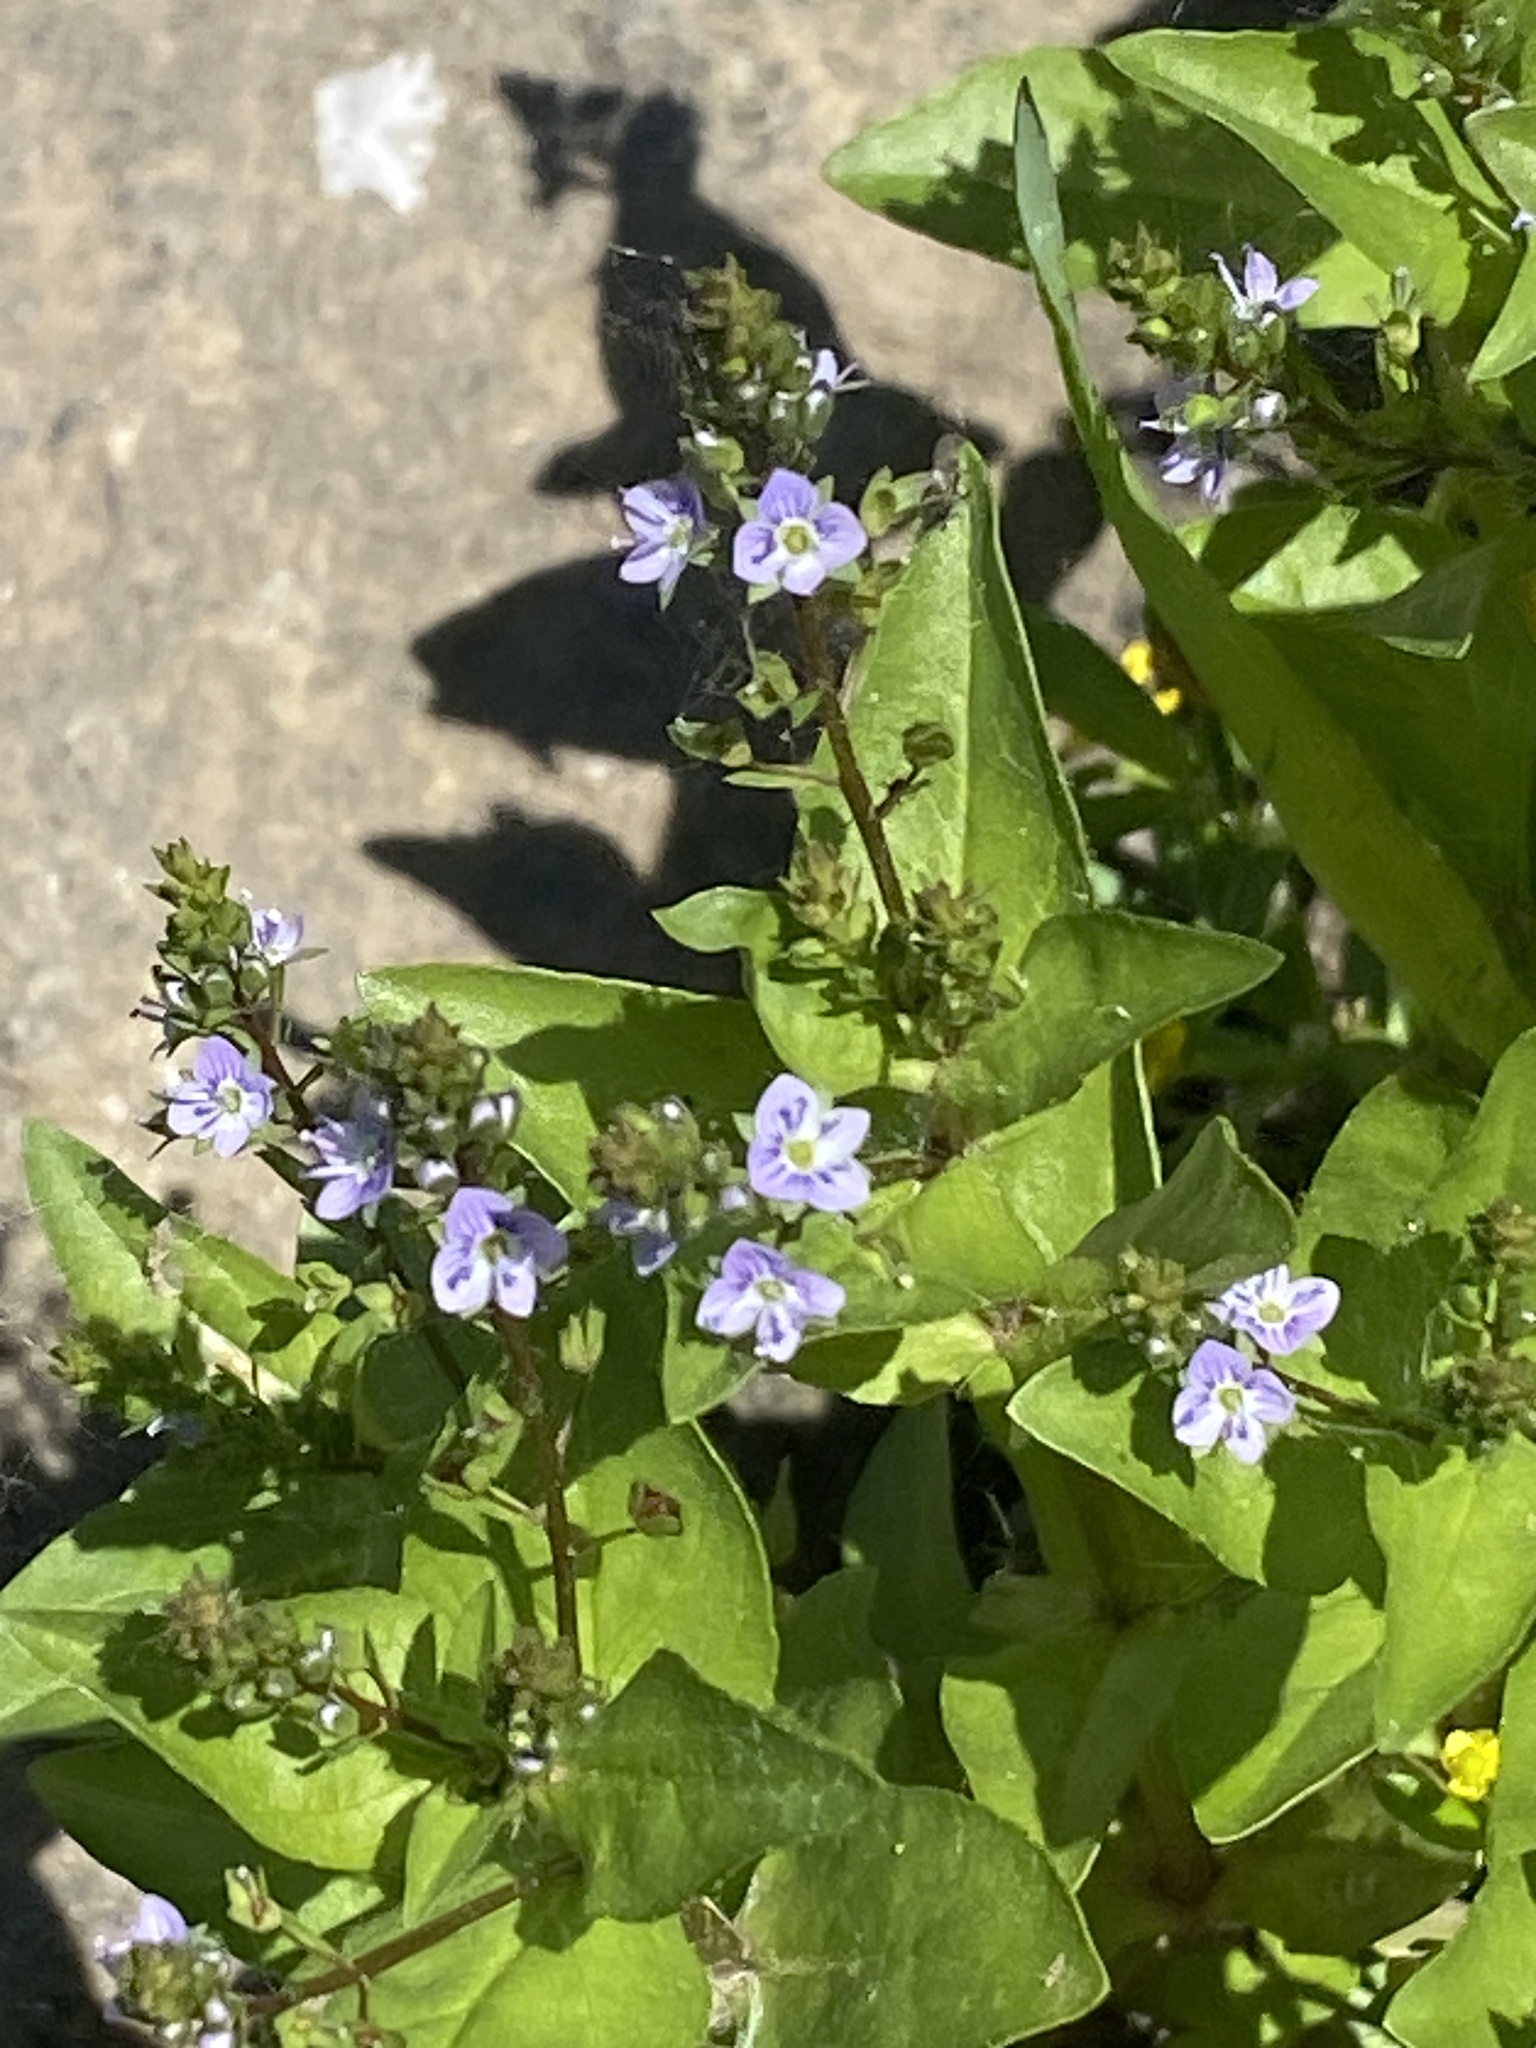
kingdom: Plantae
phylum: Tracheophyta
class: Magnoliopsida
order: Lamiales
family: Plantaginaceae
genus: Veronica
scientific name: Veronica anagallis-aquatica
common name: Water speedwell
